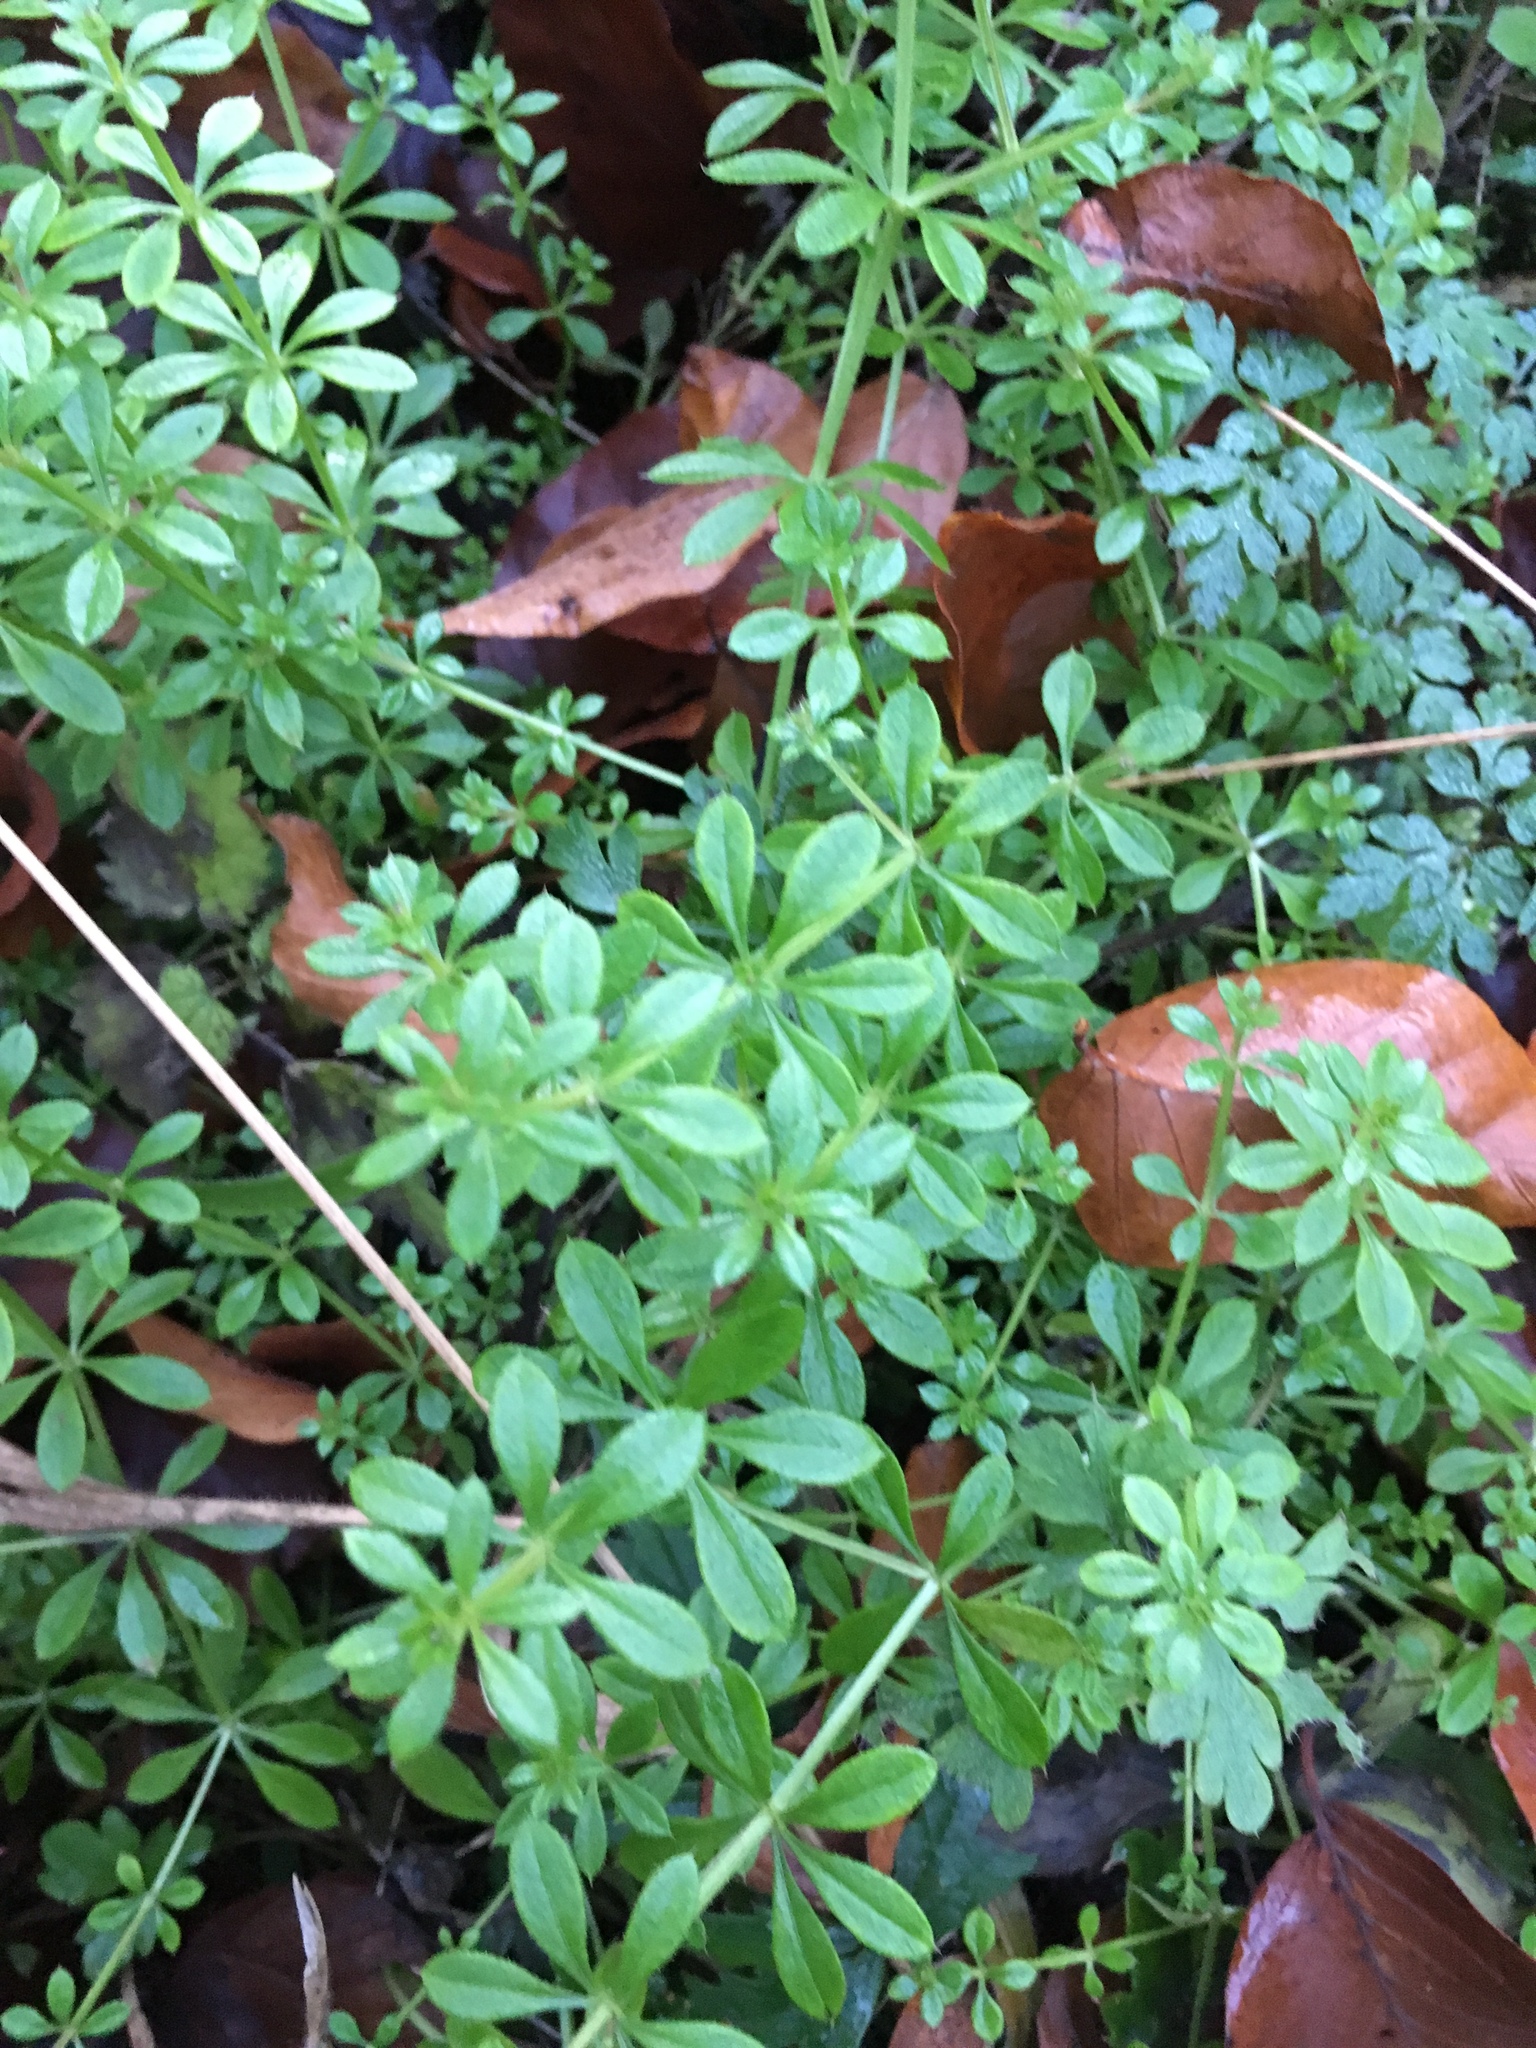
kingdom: Plantae
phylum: Tracheophyta
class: Magnoliopsida
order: Gentianales
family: Rubiaceae
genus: Galium
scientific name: Galium aparine
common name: Cleavers
